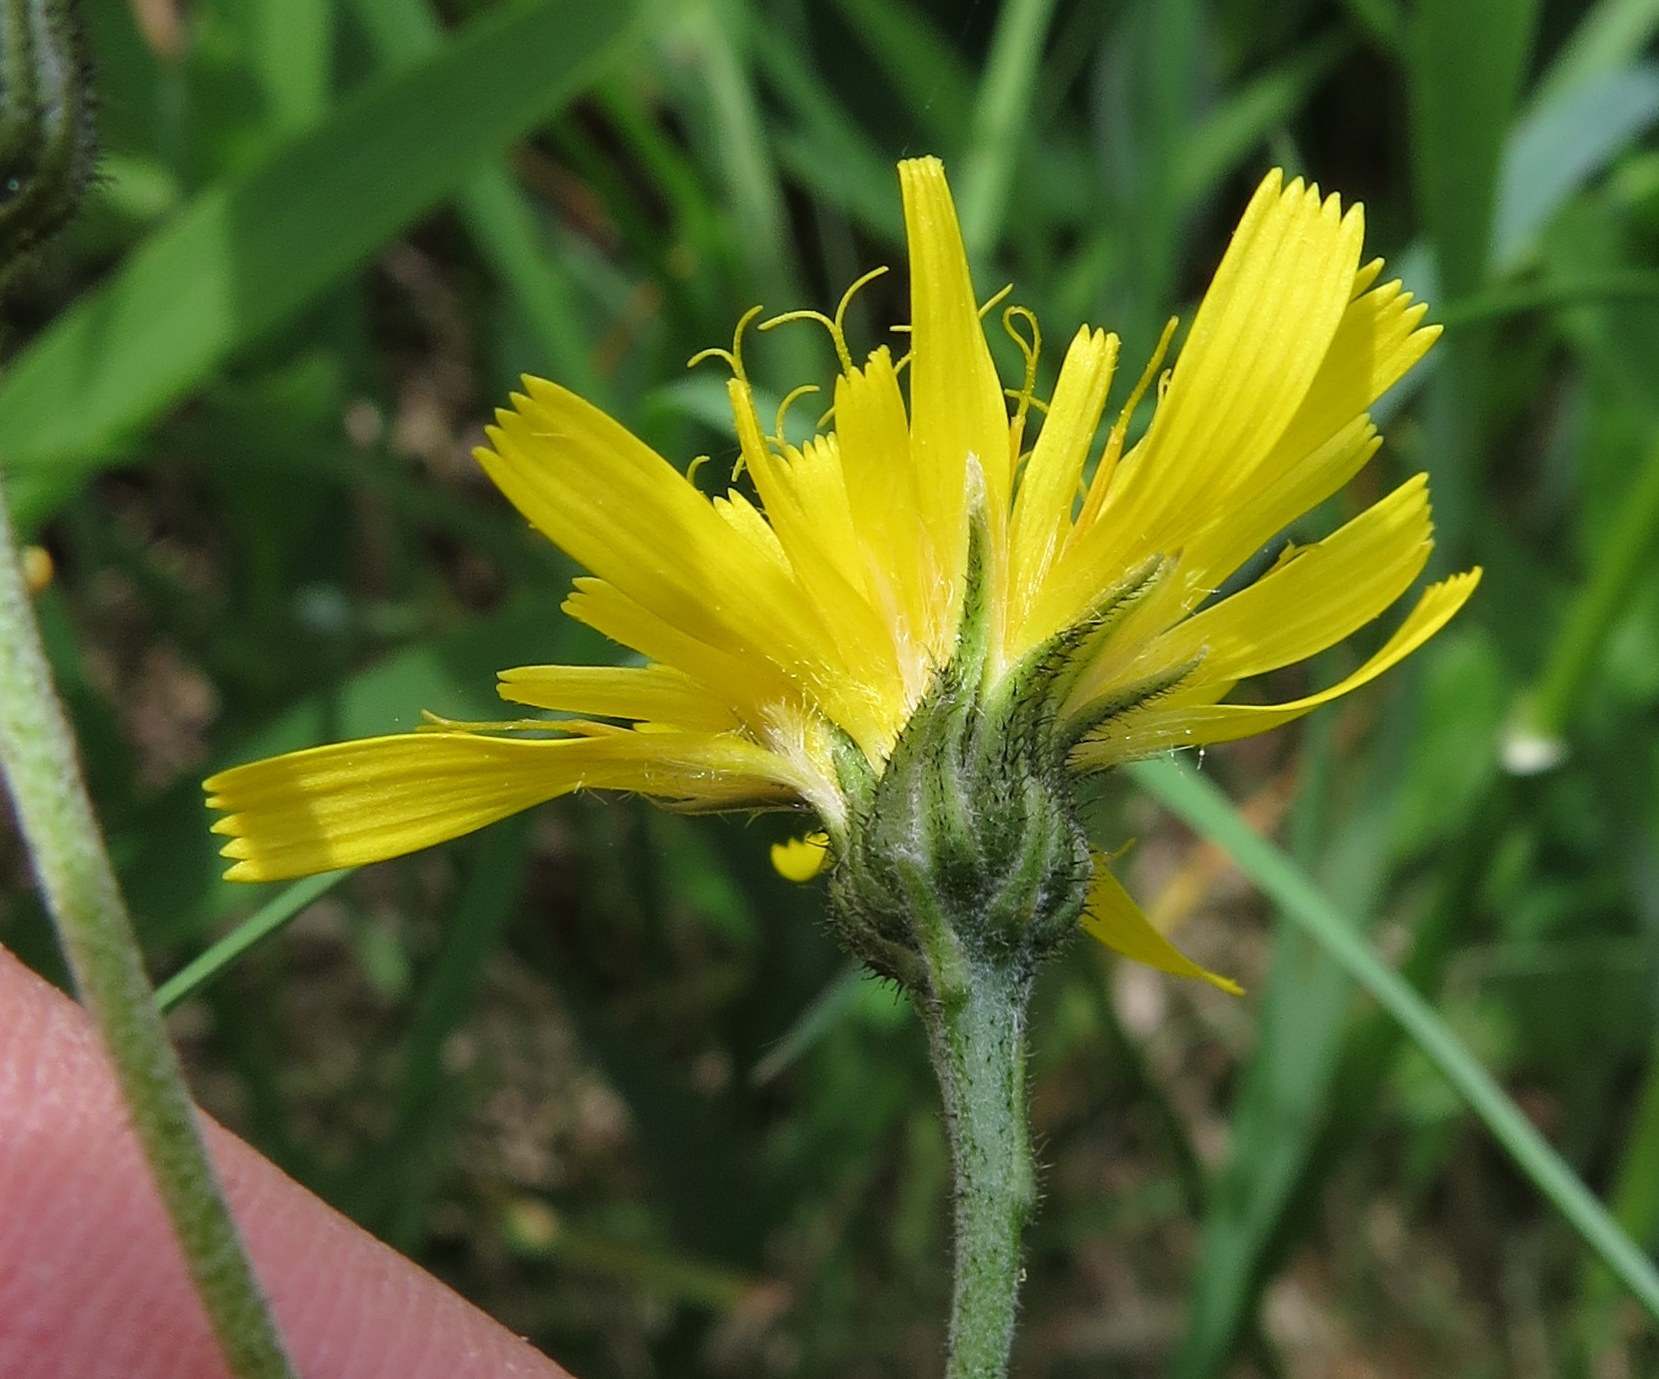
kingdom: Plantae
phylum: Tracheophyta
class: Magnoliopsida
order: Asterales
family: Asteraceae
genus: Hieracium
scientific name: Hieracium murorum
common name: Wall hawkweed
